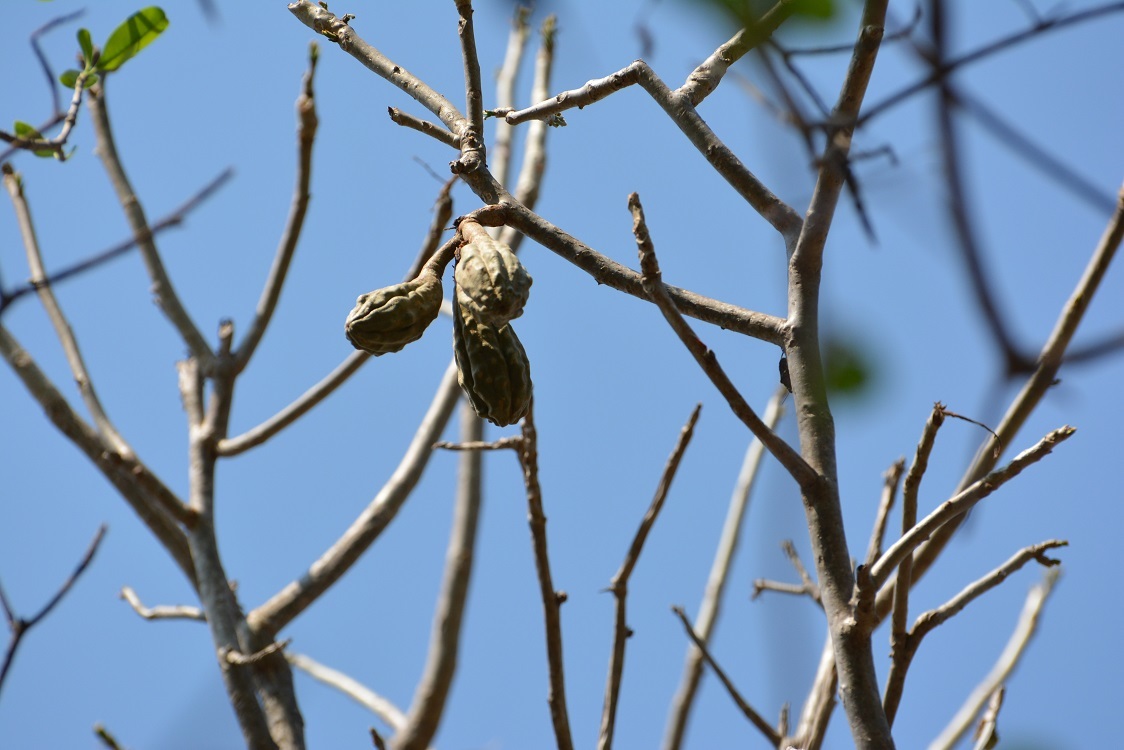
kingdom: Plantae
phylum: Tracheophyta
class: Magnoliopsida
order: Sapindales
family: Meliaceae
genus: Cedrela
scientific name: Cedrela salvadorensis
